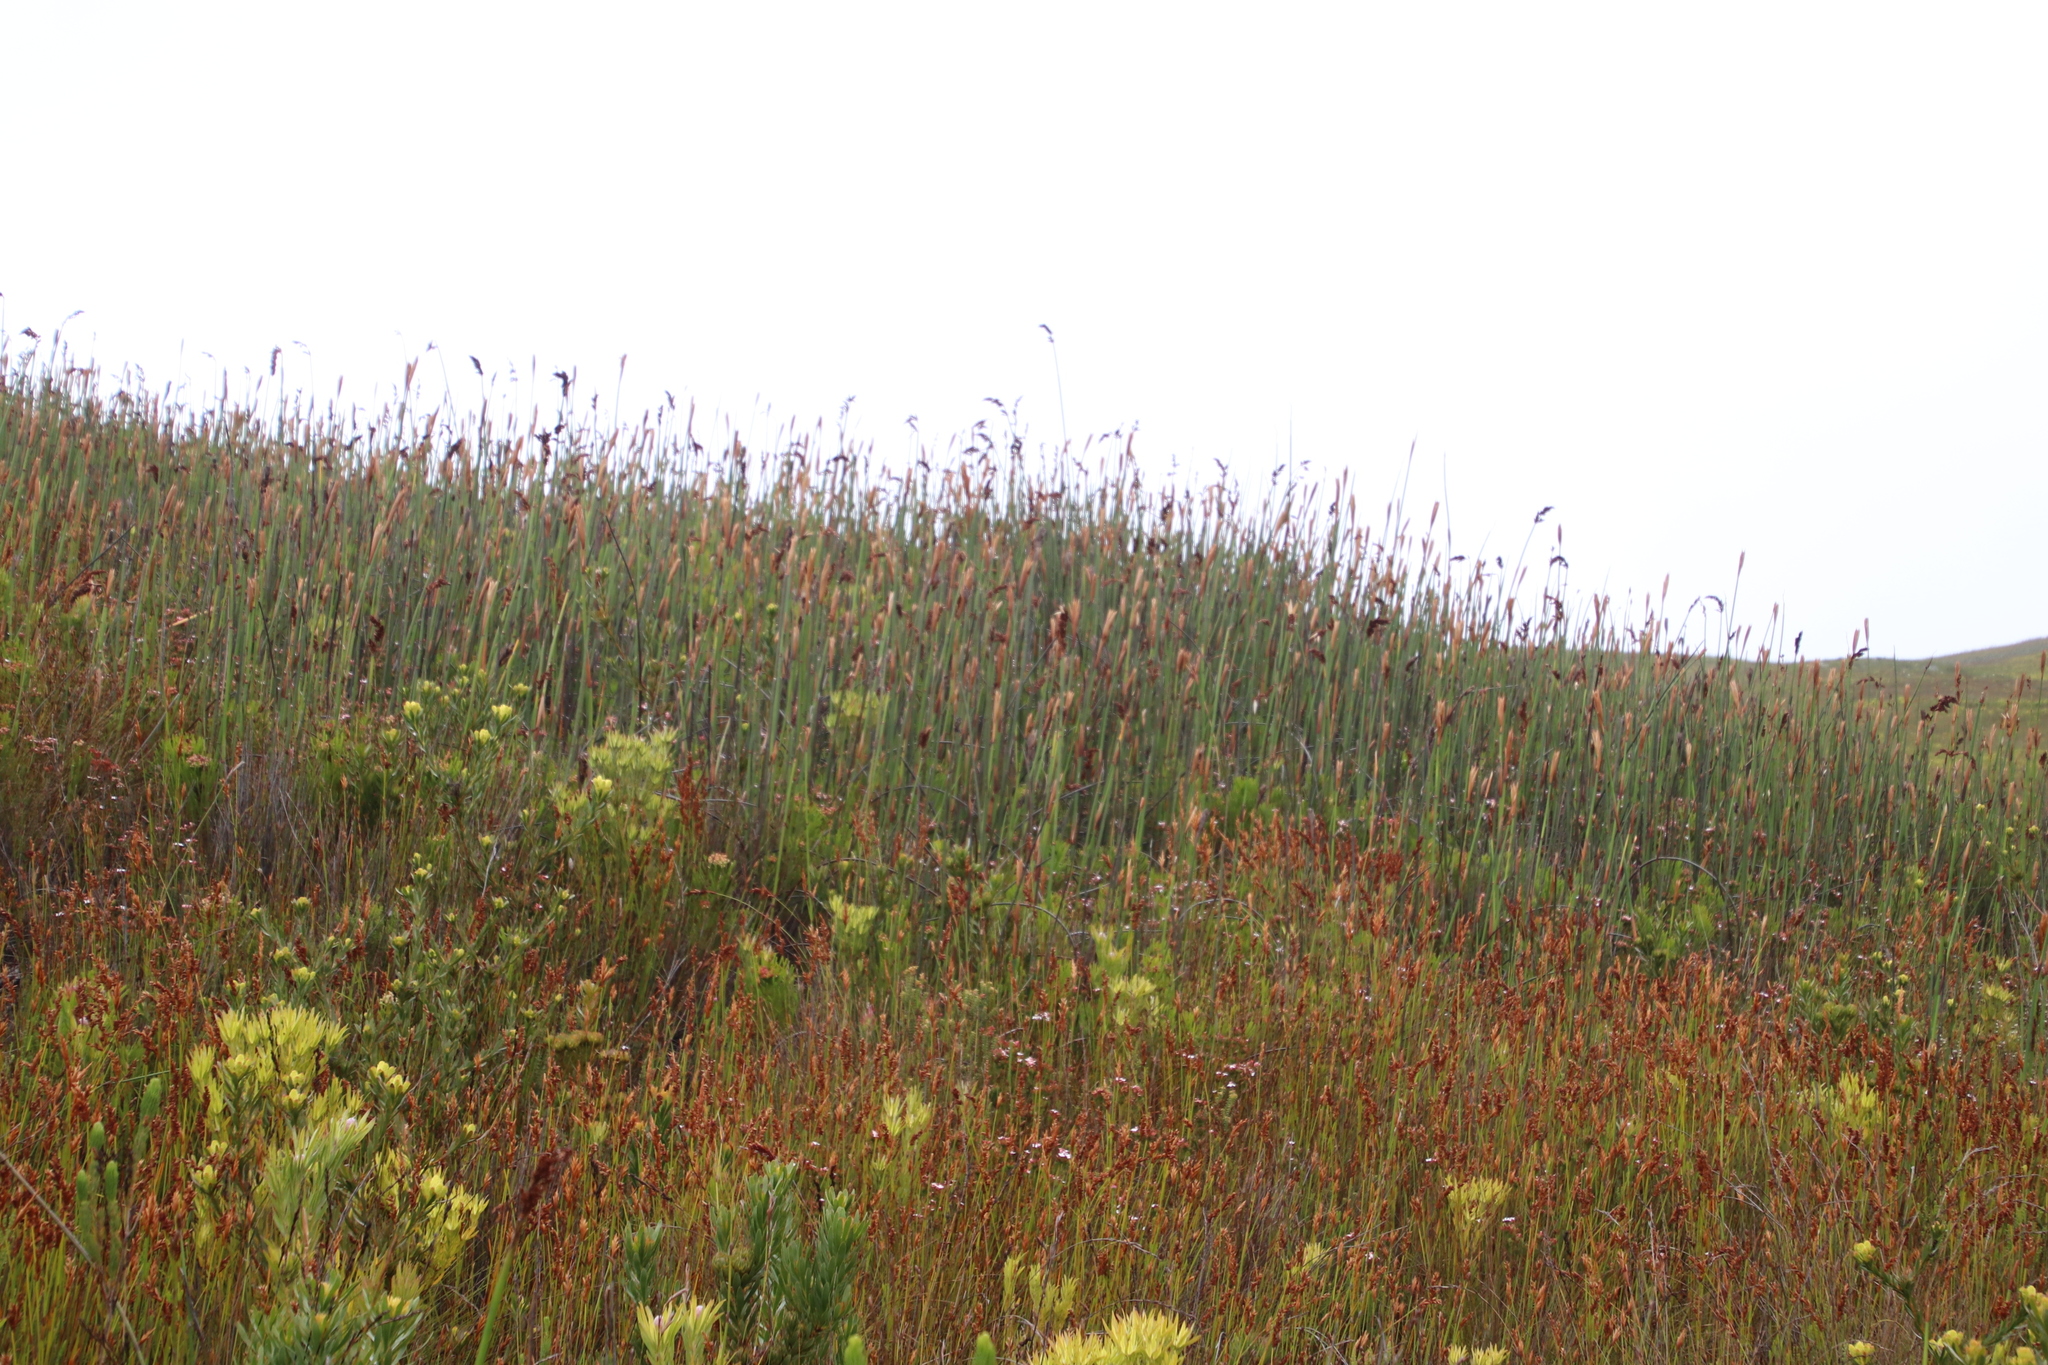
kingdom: Plantae
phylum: Tracheophyta
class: Liliopsida
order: Poales
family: Restionaceae
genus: Elegia
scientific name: Elegia mucronata
